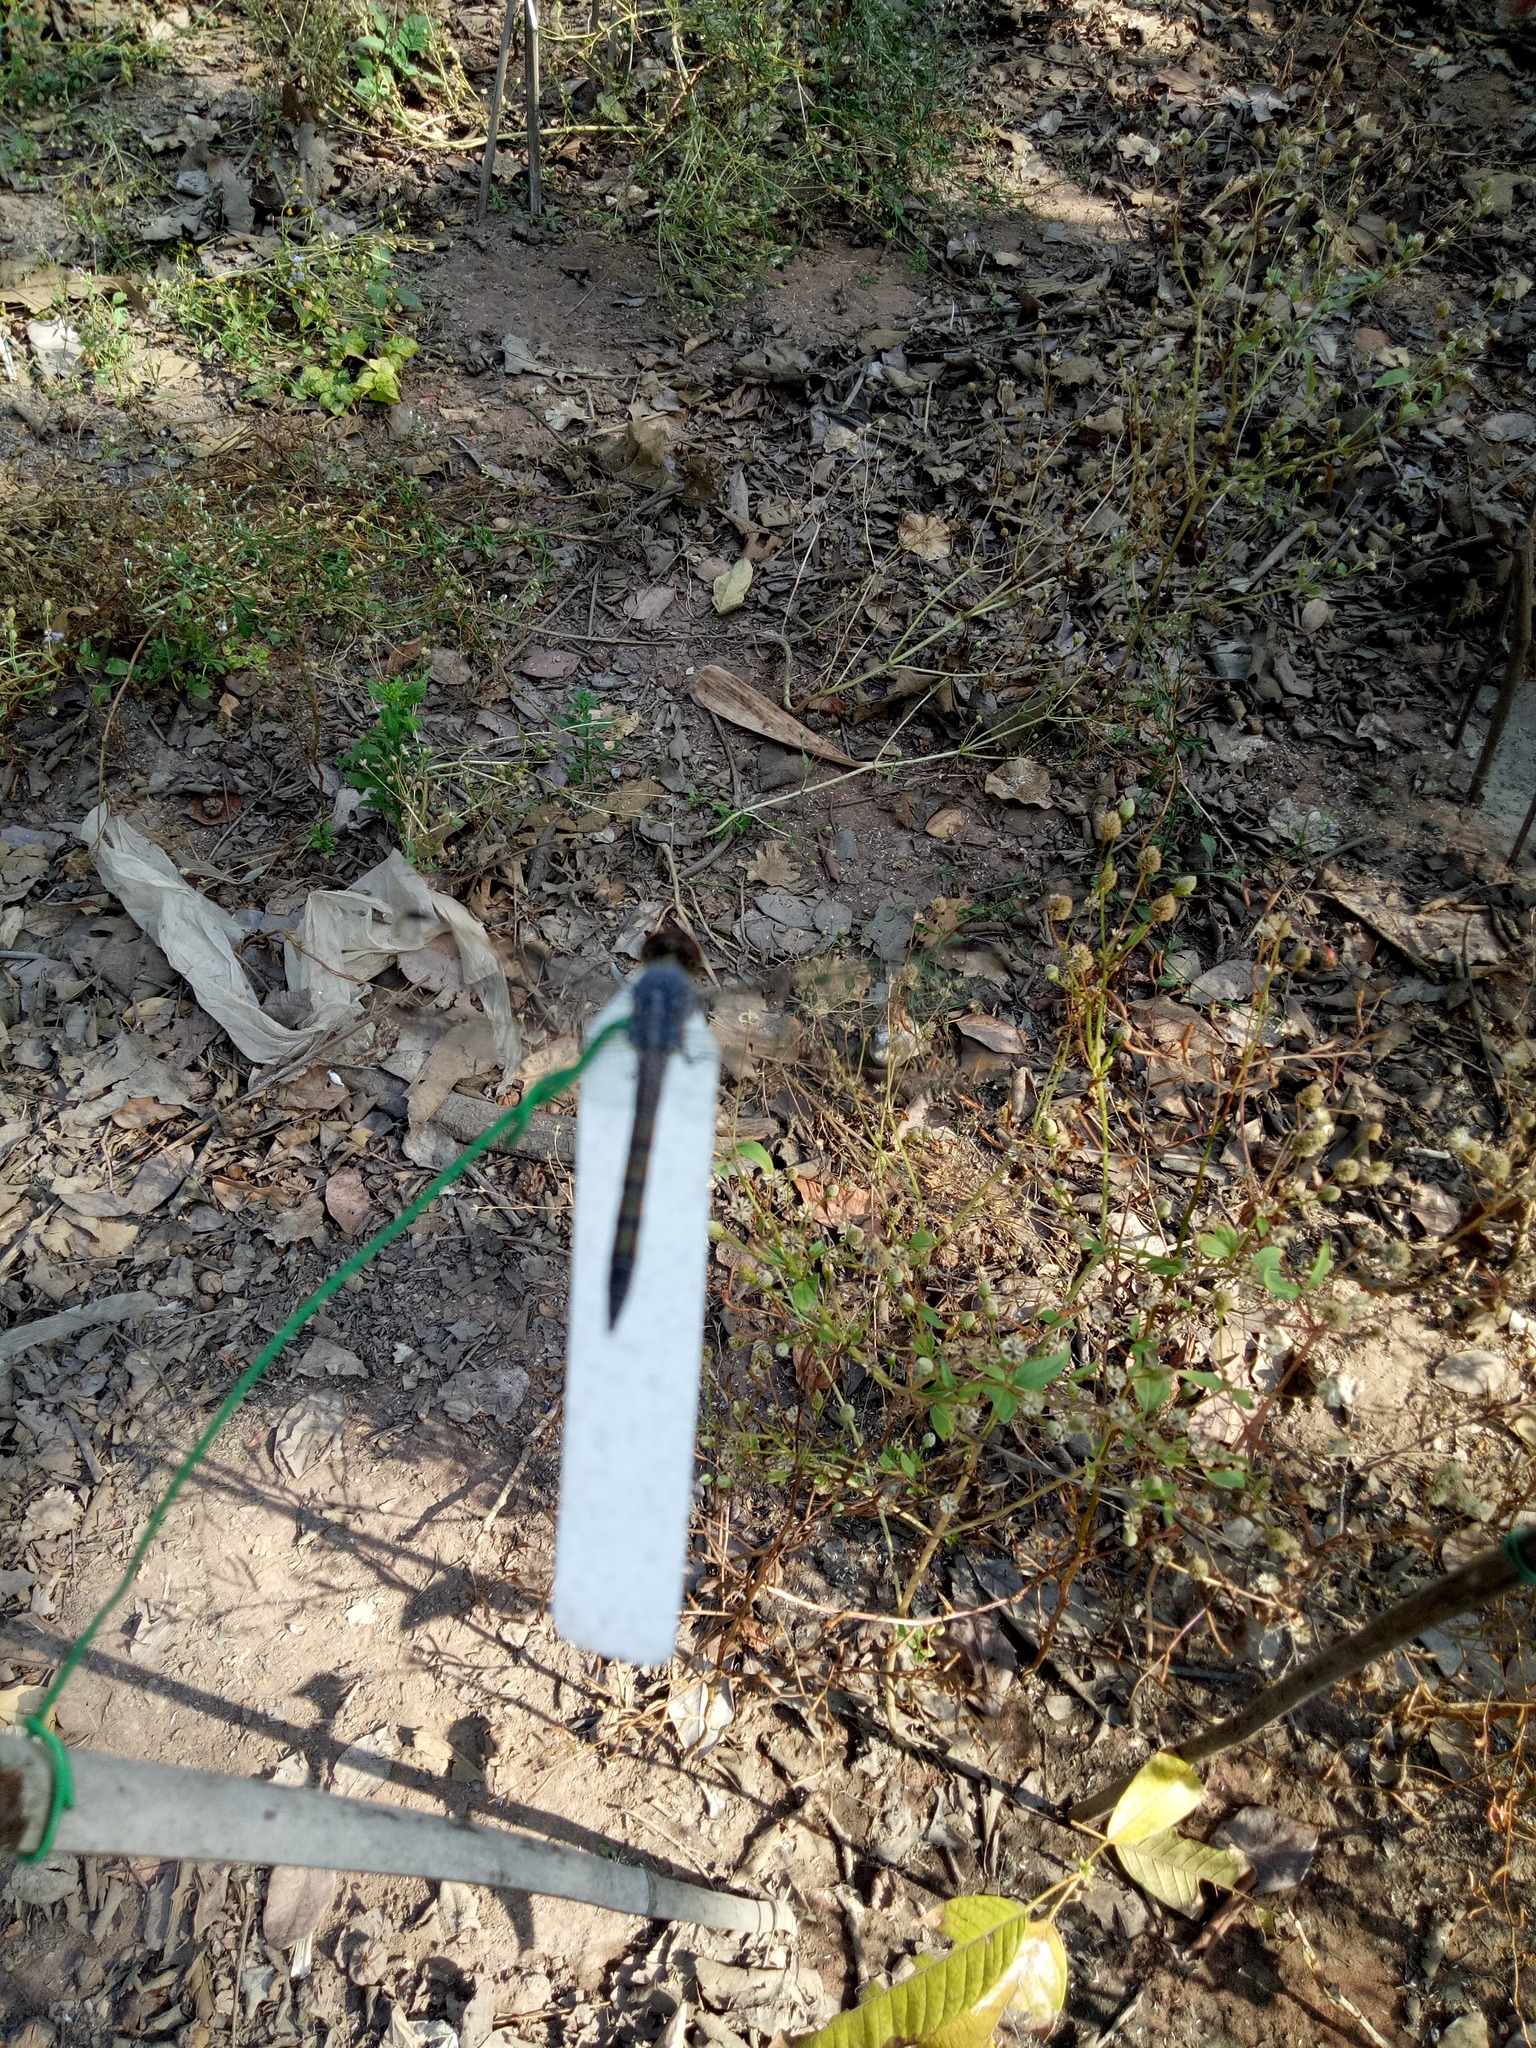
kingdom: Animalia
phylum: Arthropoda
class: Insecta
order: Odonata
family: Libellulidae
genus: Potamarcha
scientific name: Potamarcha congener
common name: Blue chaser
